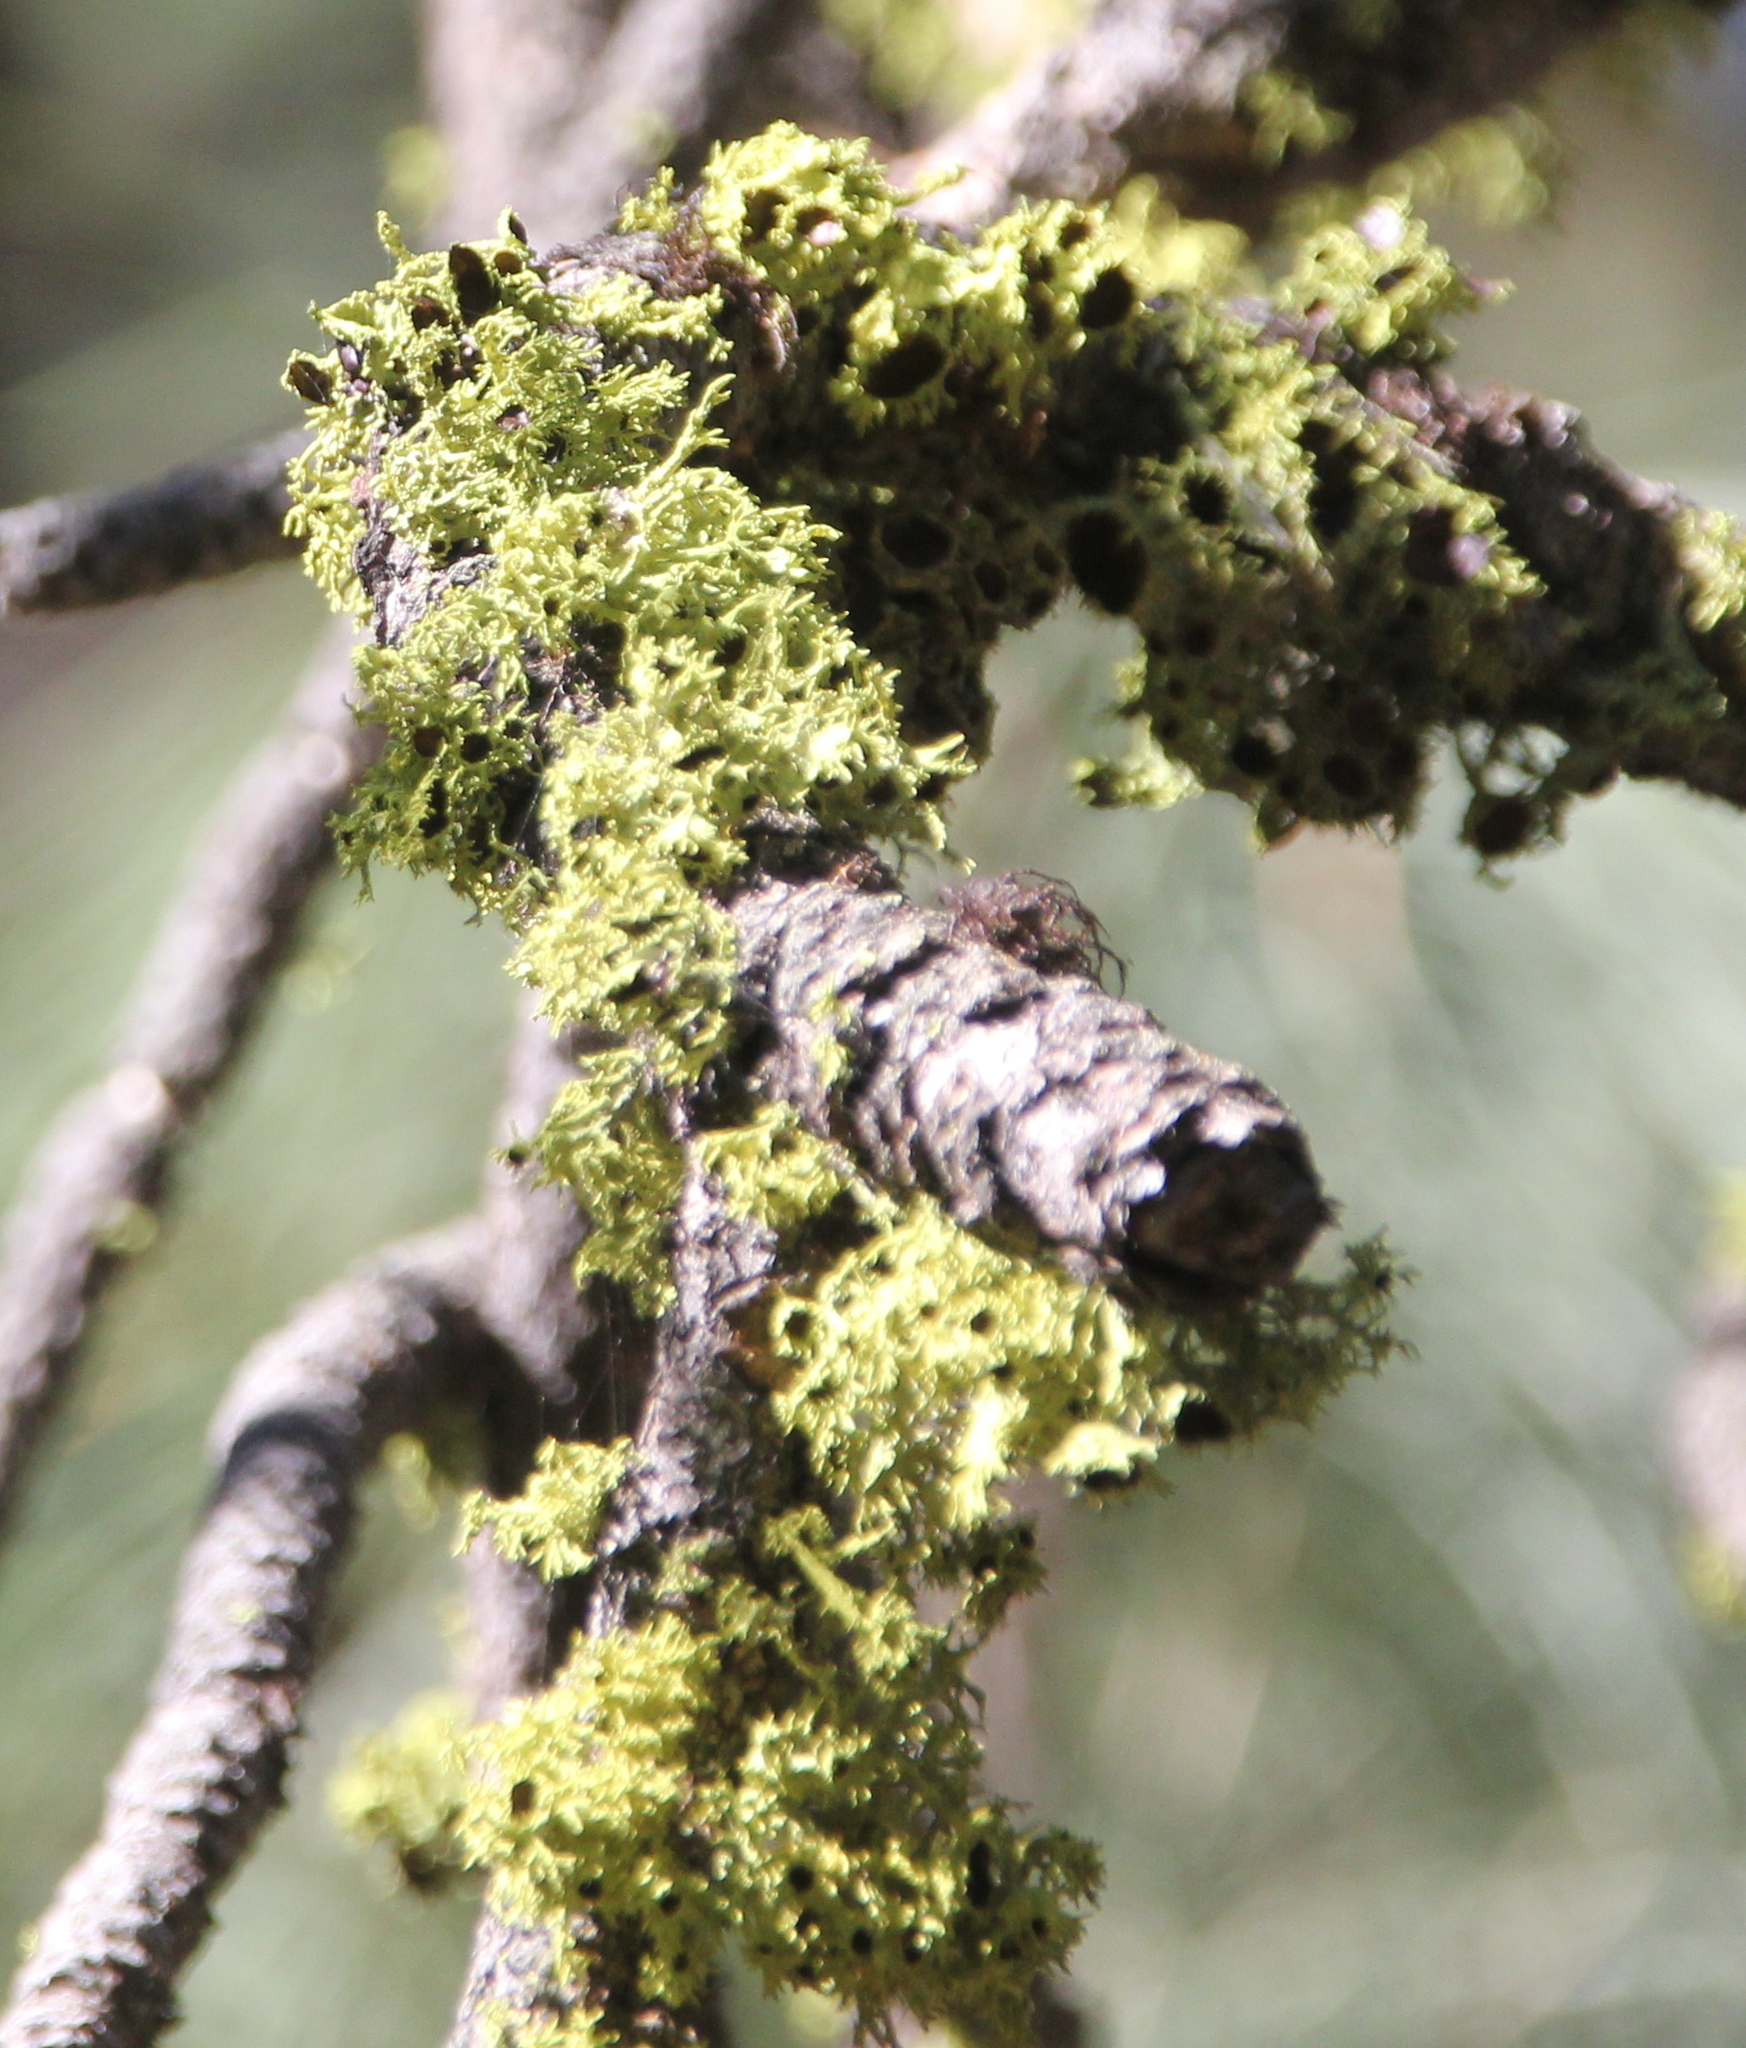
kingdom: Fungi
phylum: Ascomycota
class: Lecanoromycetes
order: Lecanorales
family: Parmeliaceae
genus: Letharia
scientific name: Letharia columbiana
